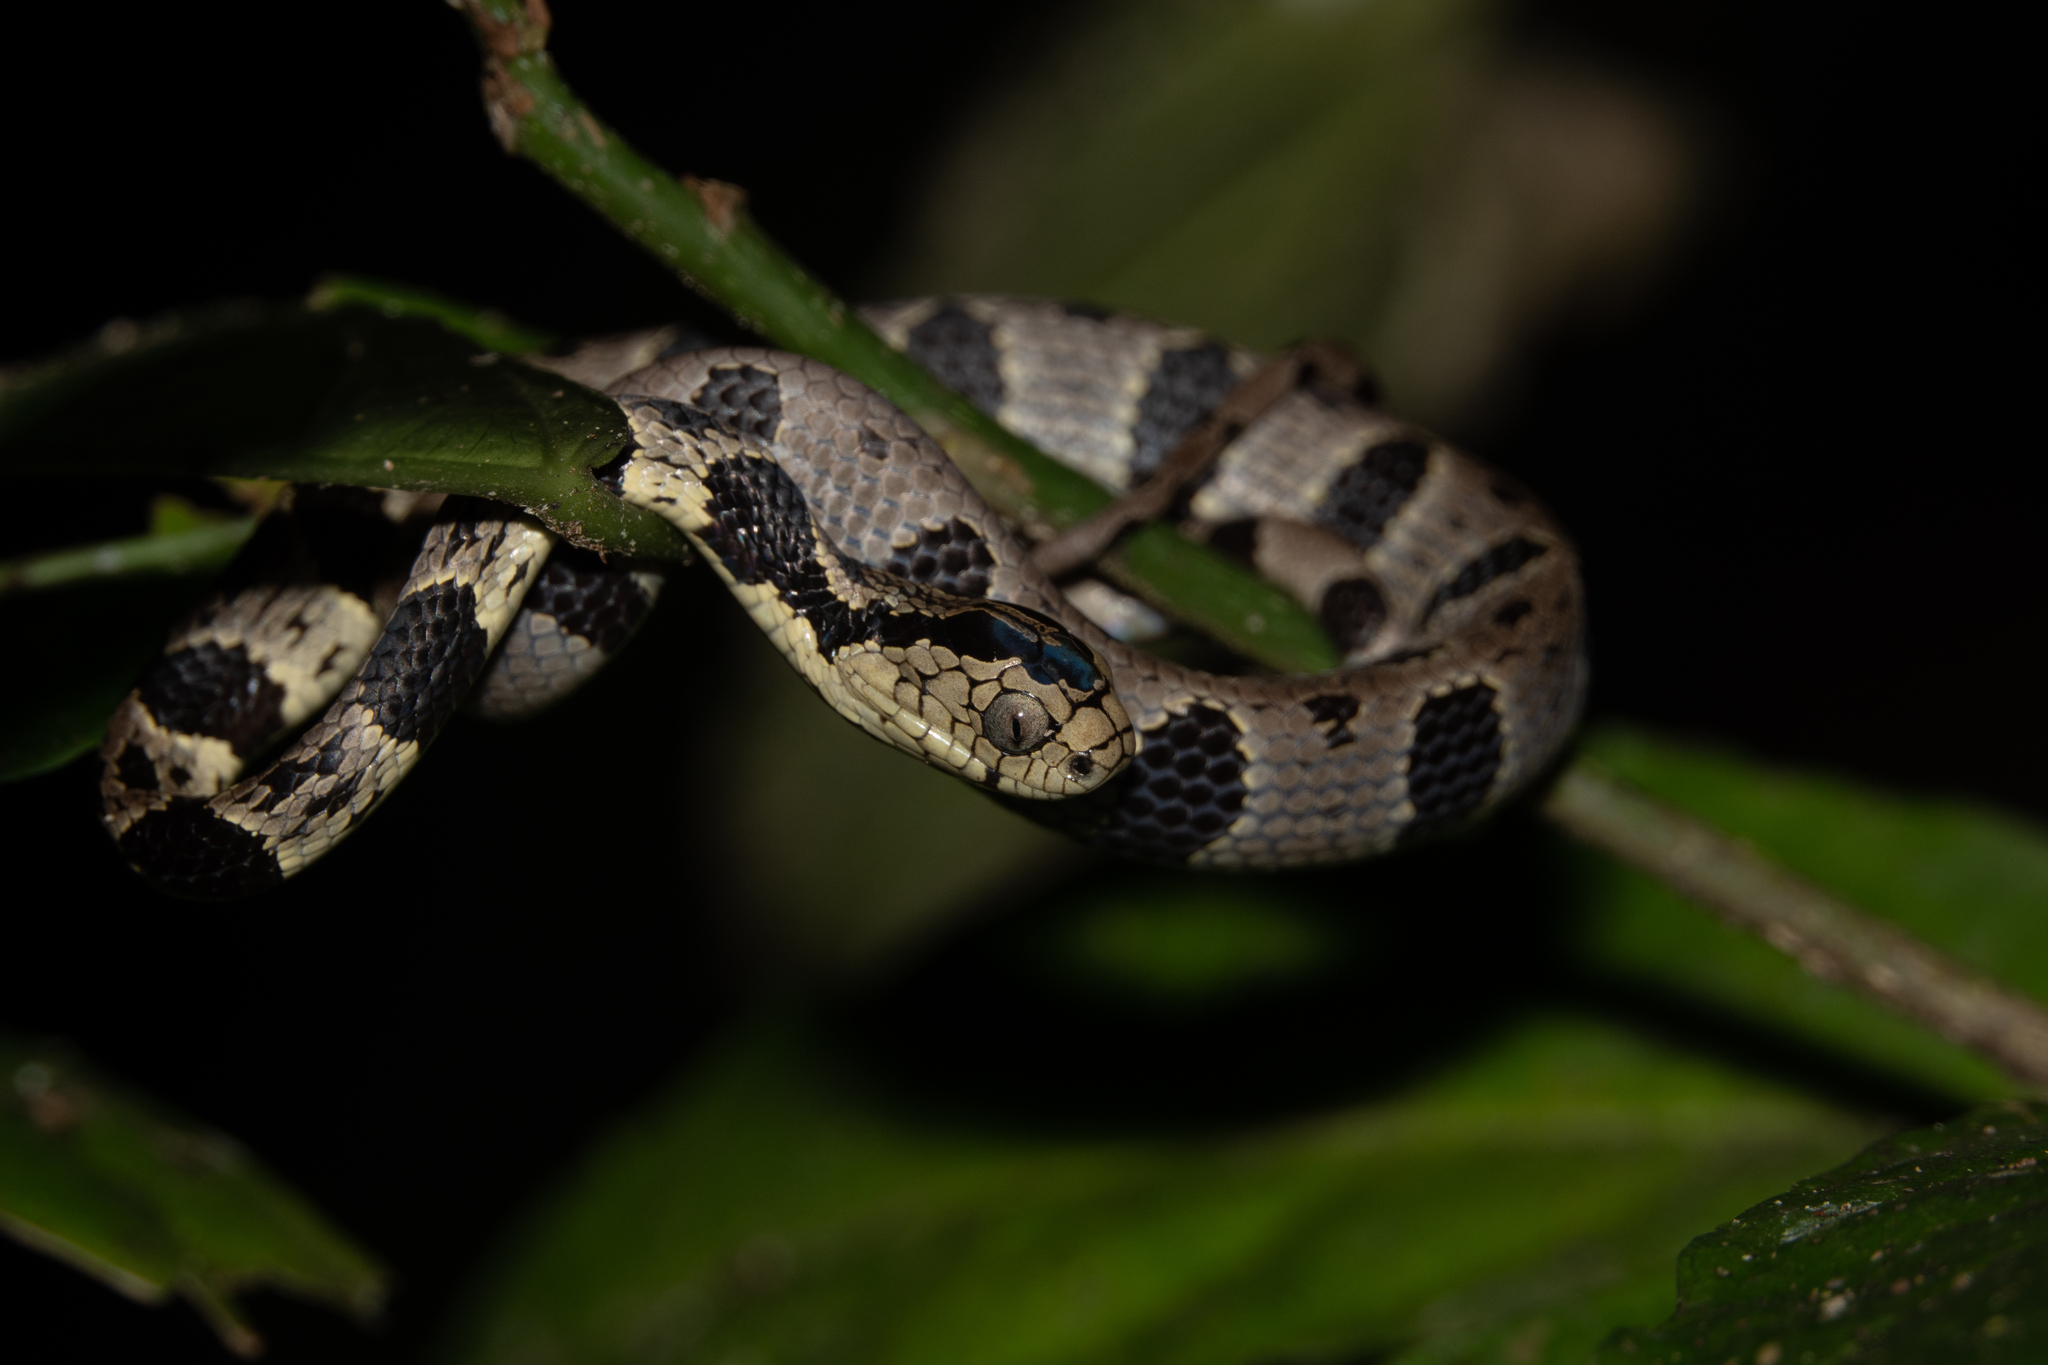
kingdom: Animalia
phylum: Chordata
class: Squamata
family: Colubridae
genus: Dipsas
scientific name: Dipsas andiana
